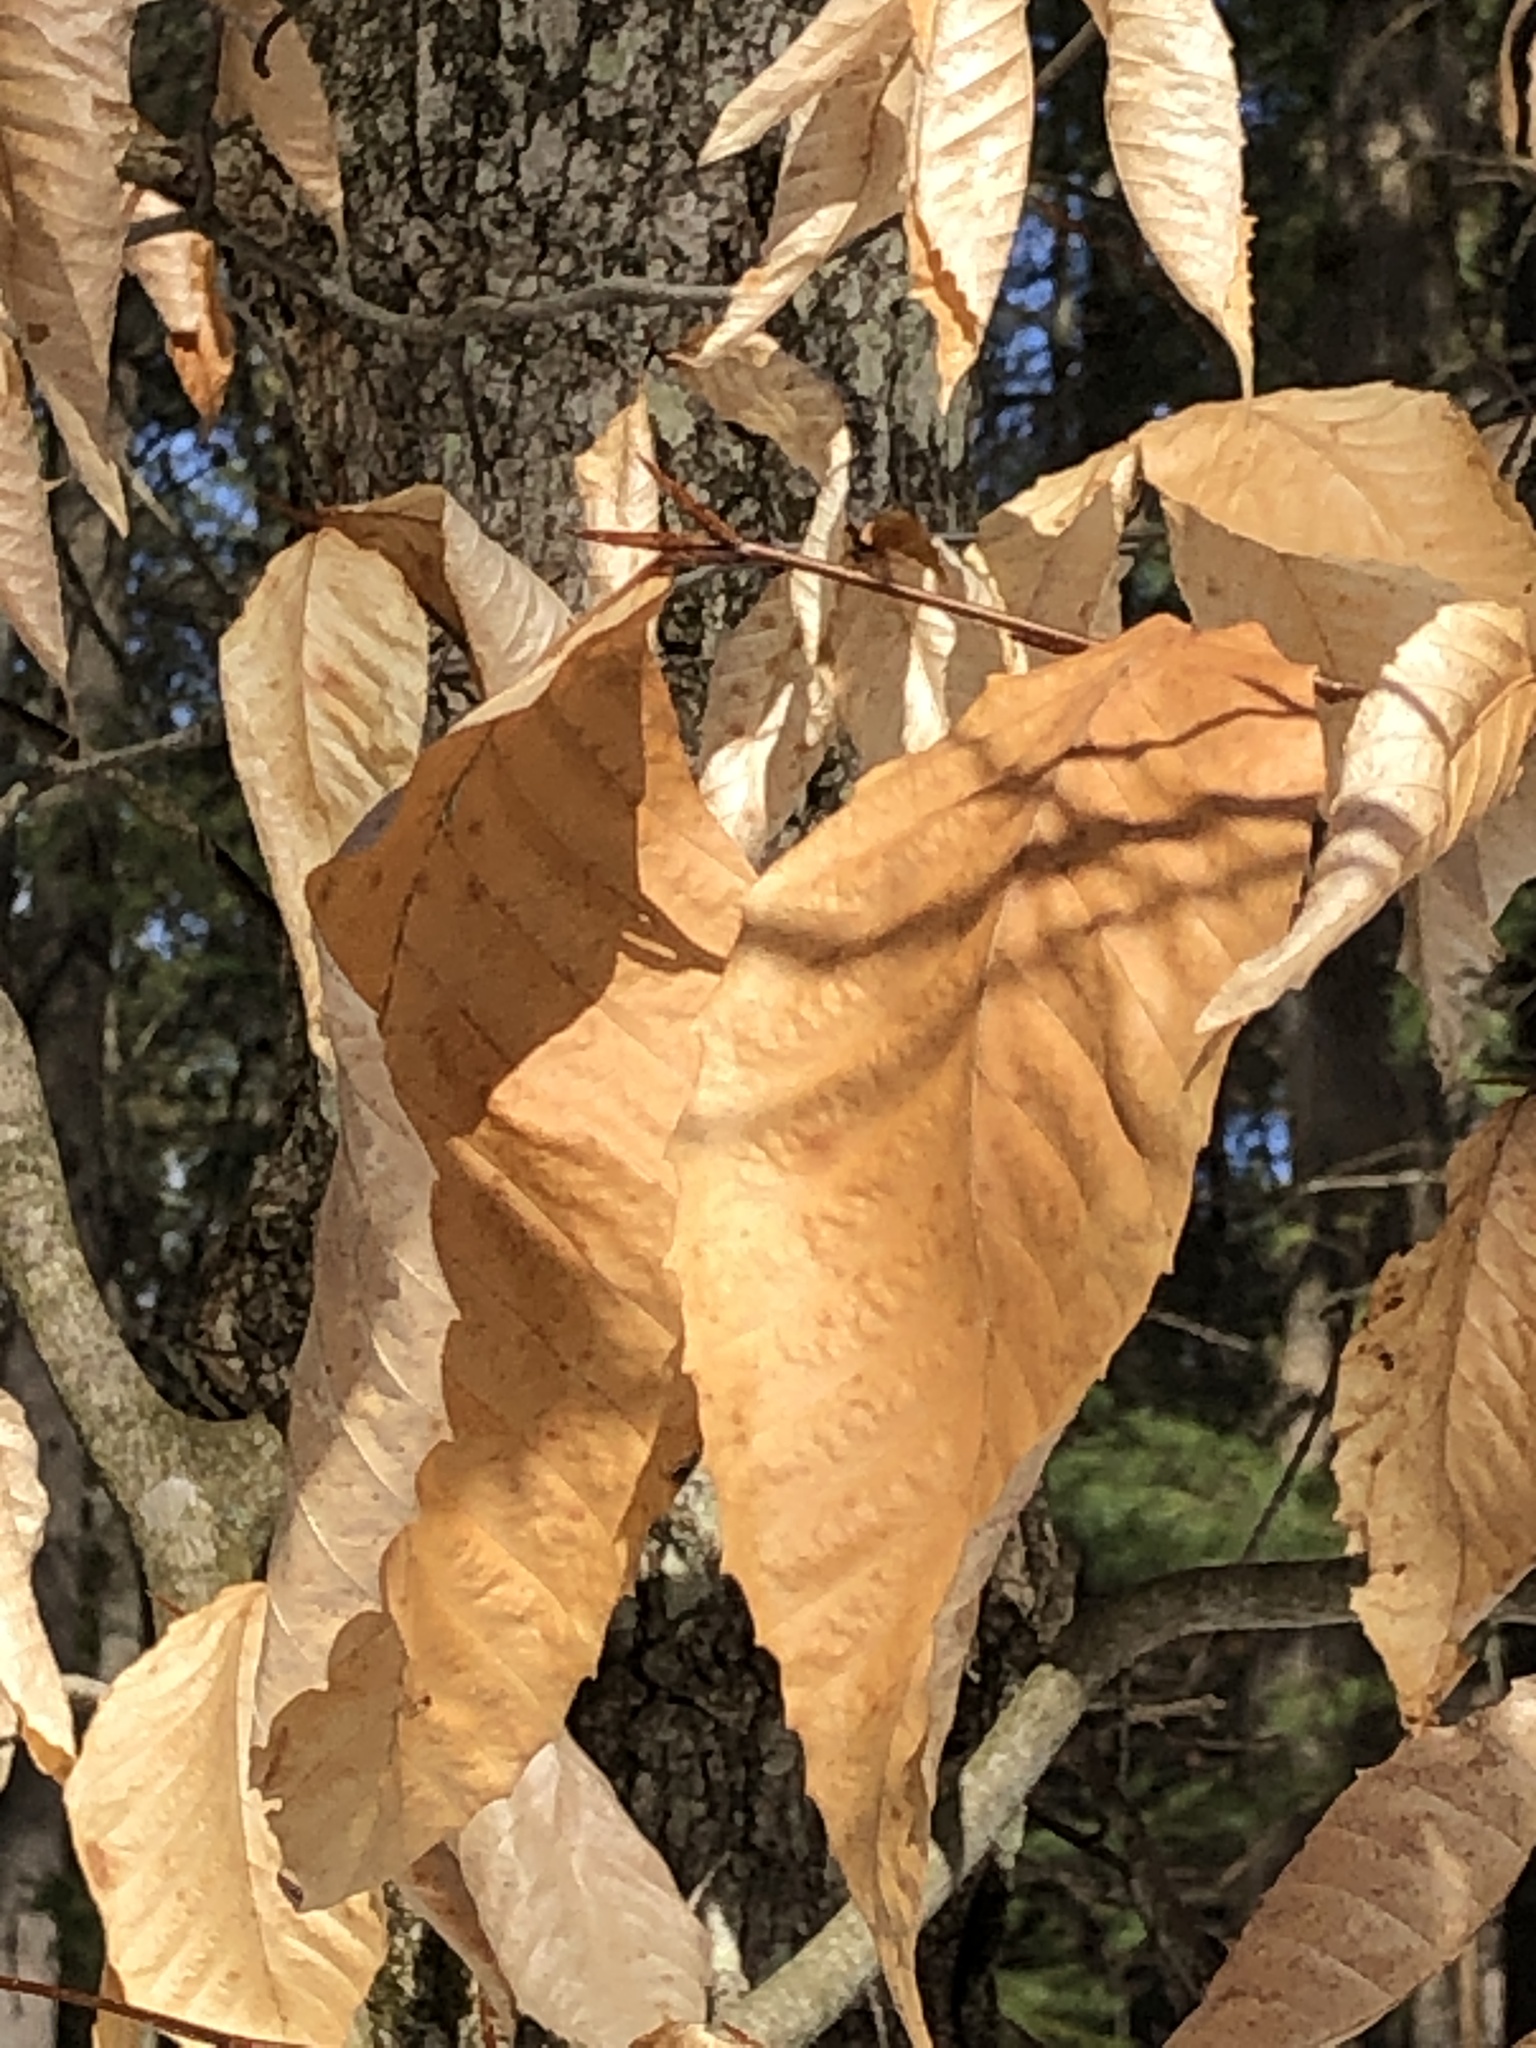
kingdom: Plantae
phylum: Tracheophyta
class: Magnoliopsida
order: Fagales
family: Fagaceae
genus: Fagus
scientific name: Fagus grandifolia
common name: American beech
